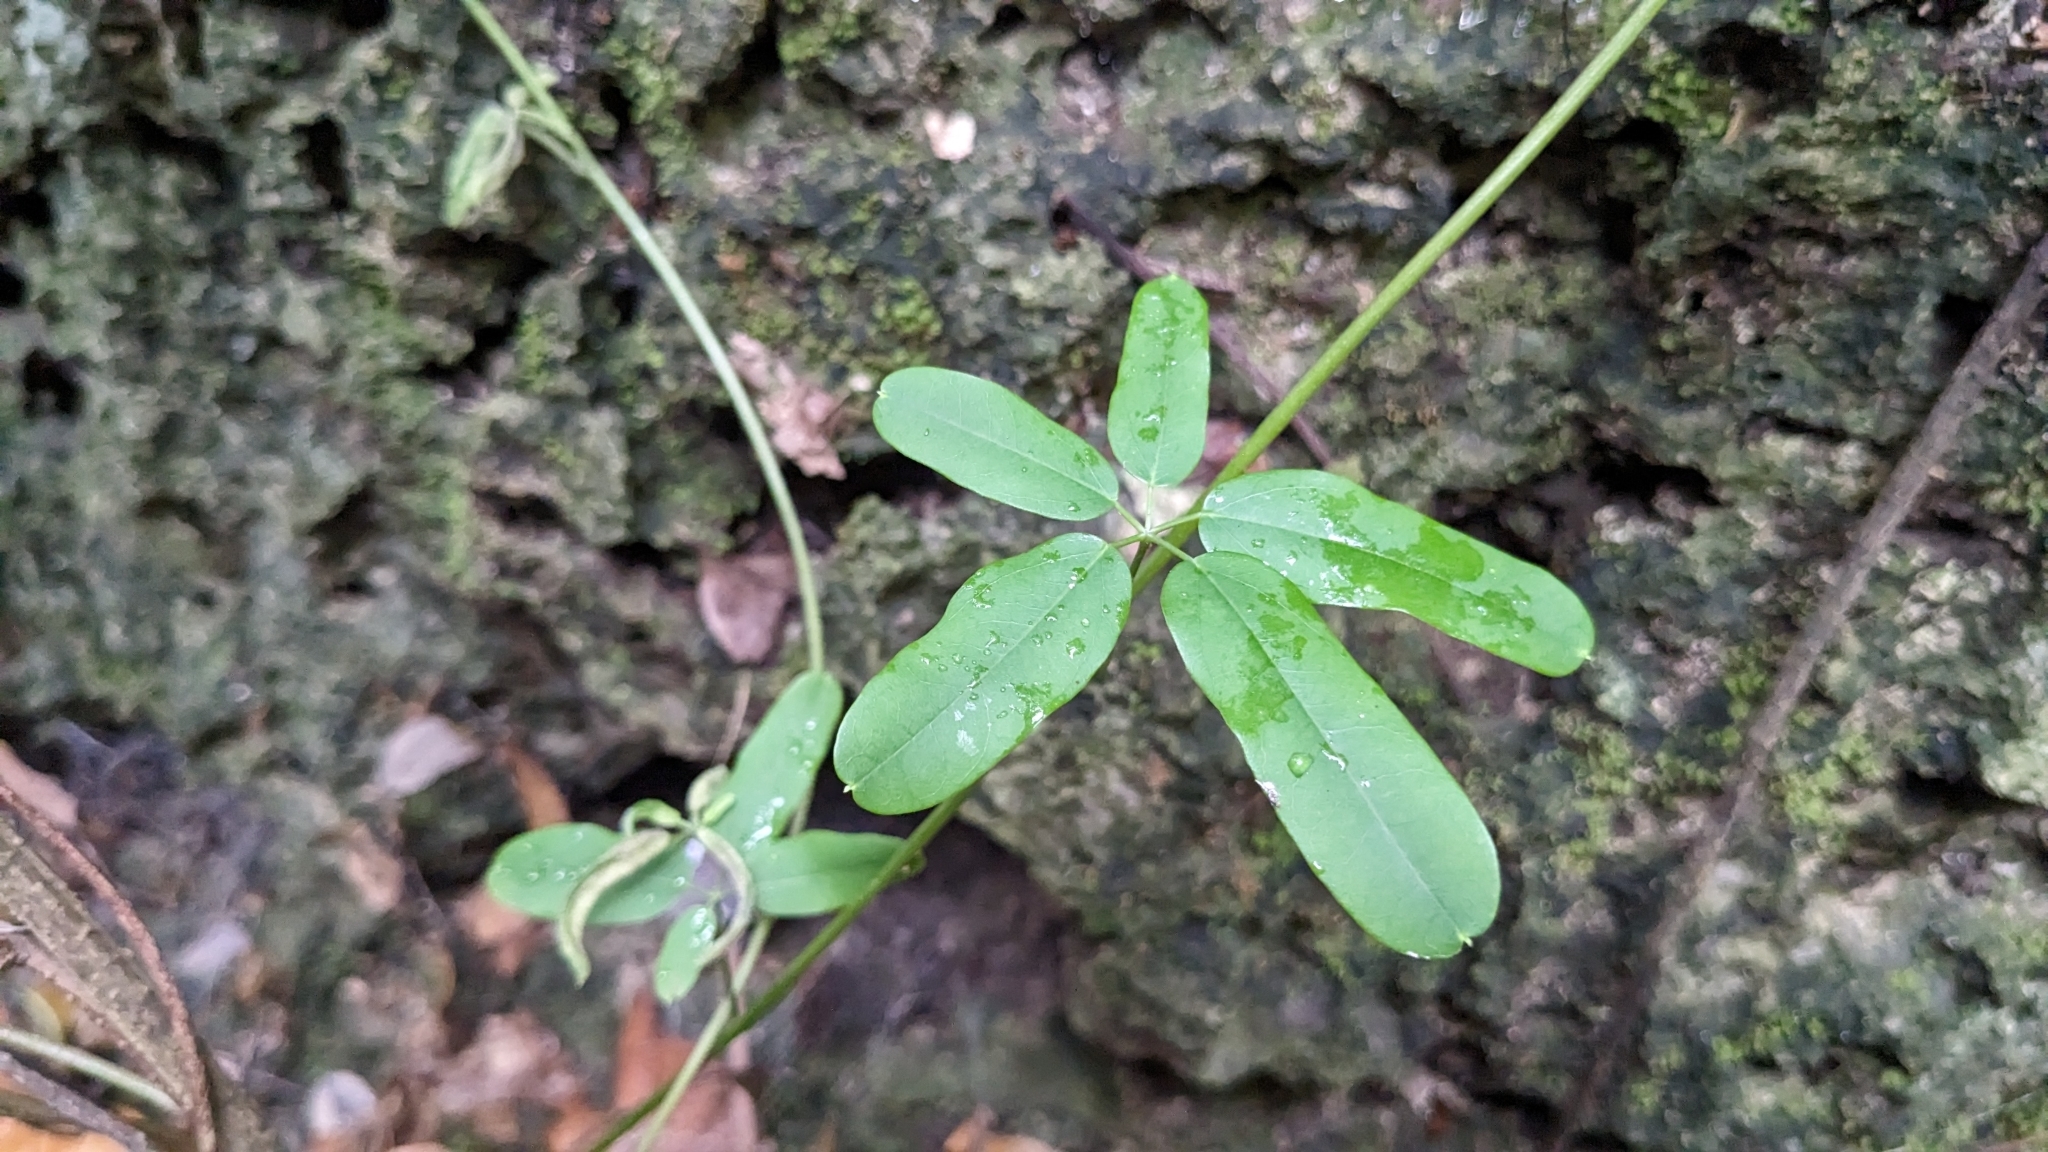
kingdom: Plantae
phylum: Tracheophyta
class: Magnoliopsida
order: Ranunculales
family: Lardizabalaceae
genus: Akebia
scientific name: Akebia longeracemosa
